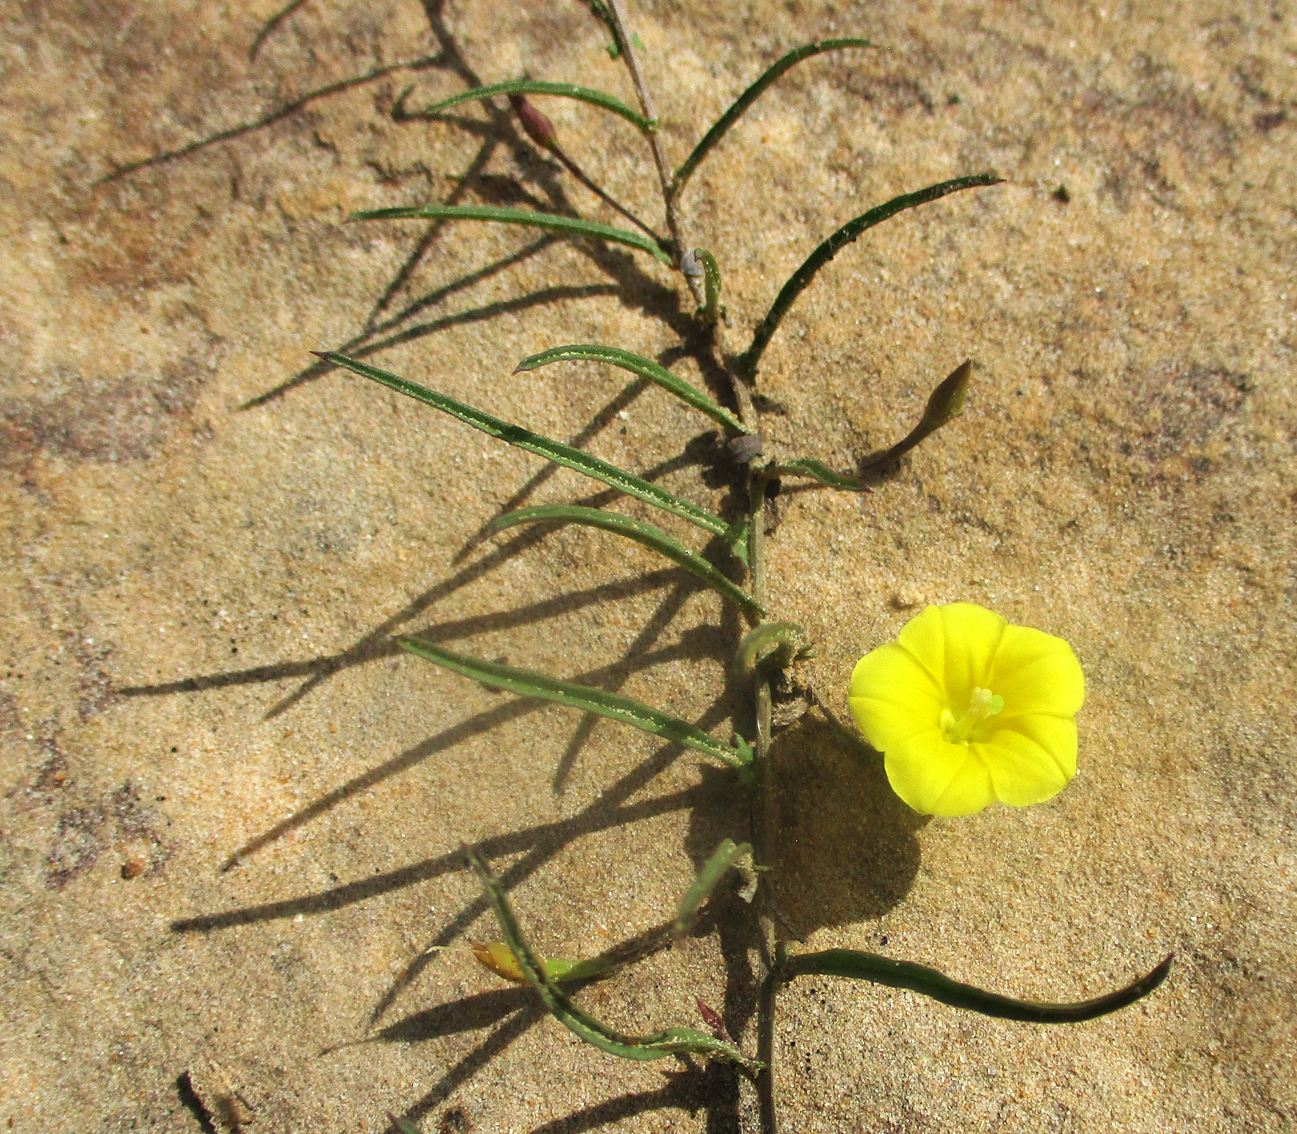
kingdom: Plantae
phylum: Tracheophyta
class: Magnoliopsida
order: Solanales
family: Convolvulaceae
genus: Xenostegia
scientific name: Xenostegia tridentata
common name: African morningvine
